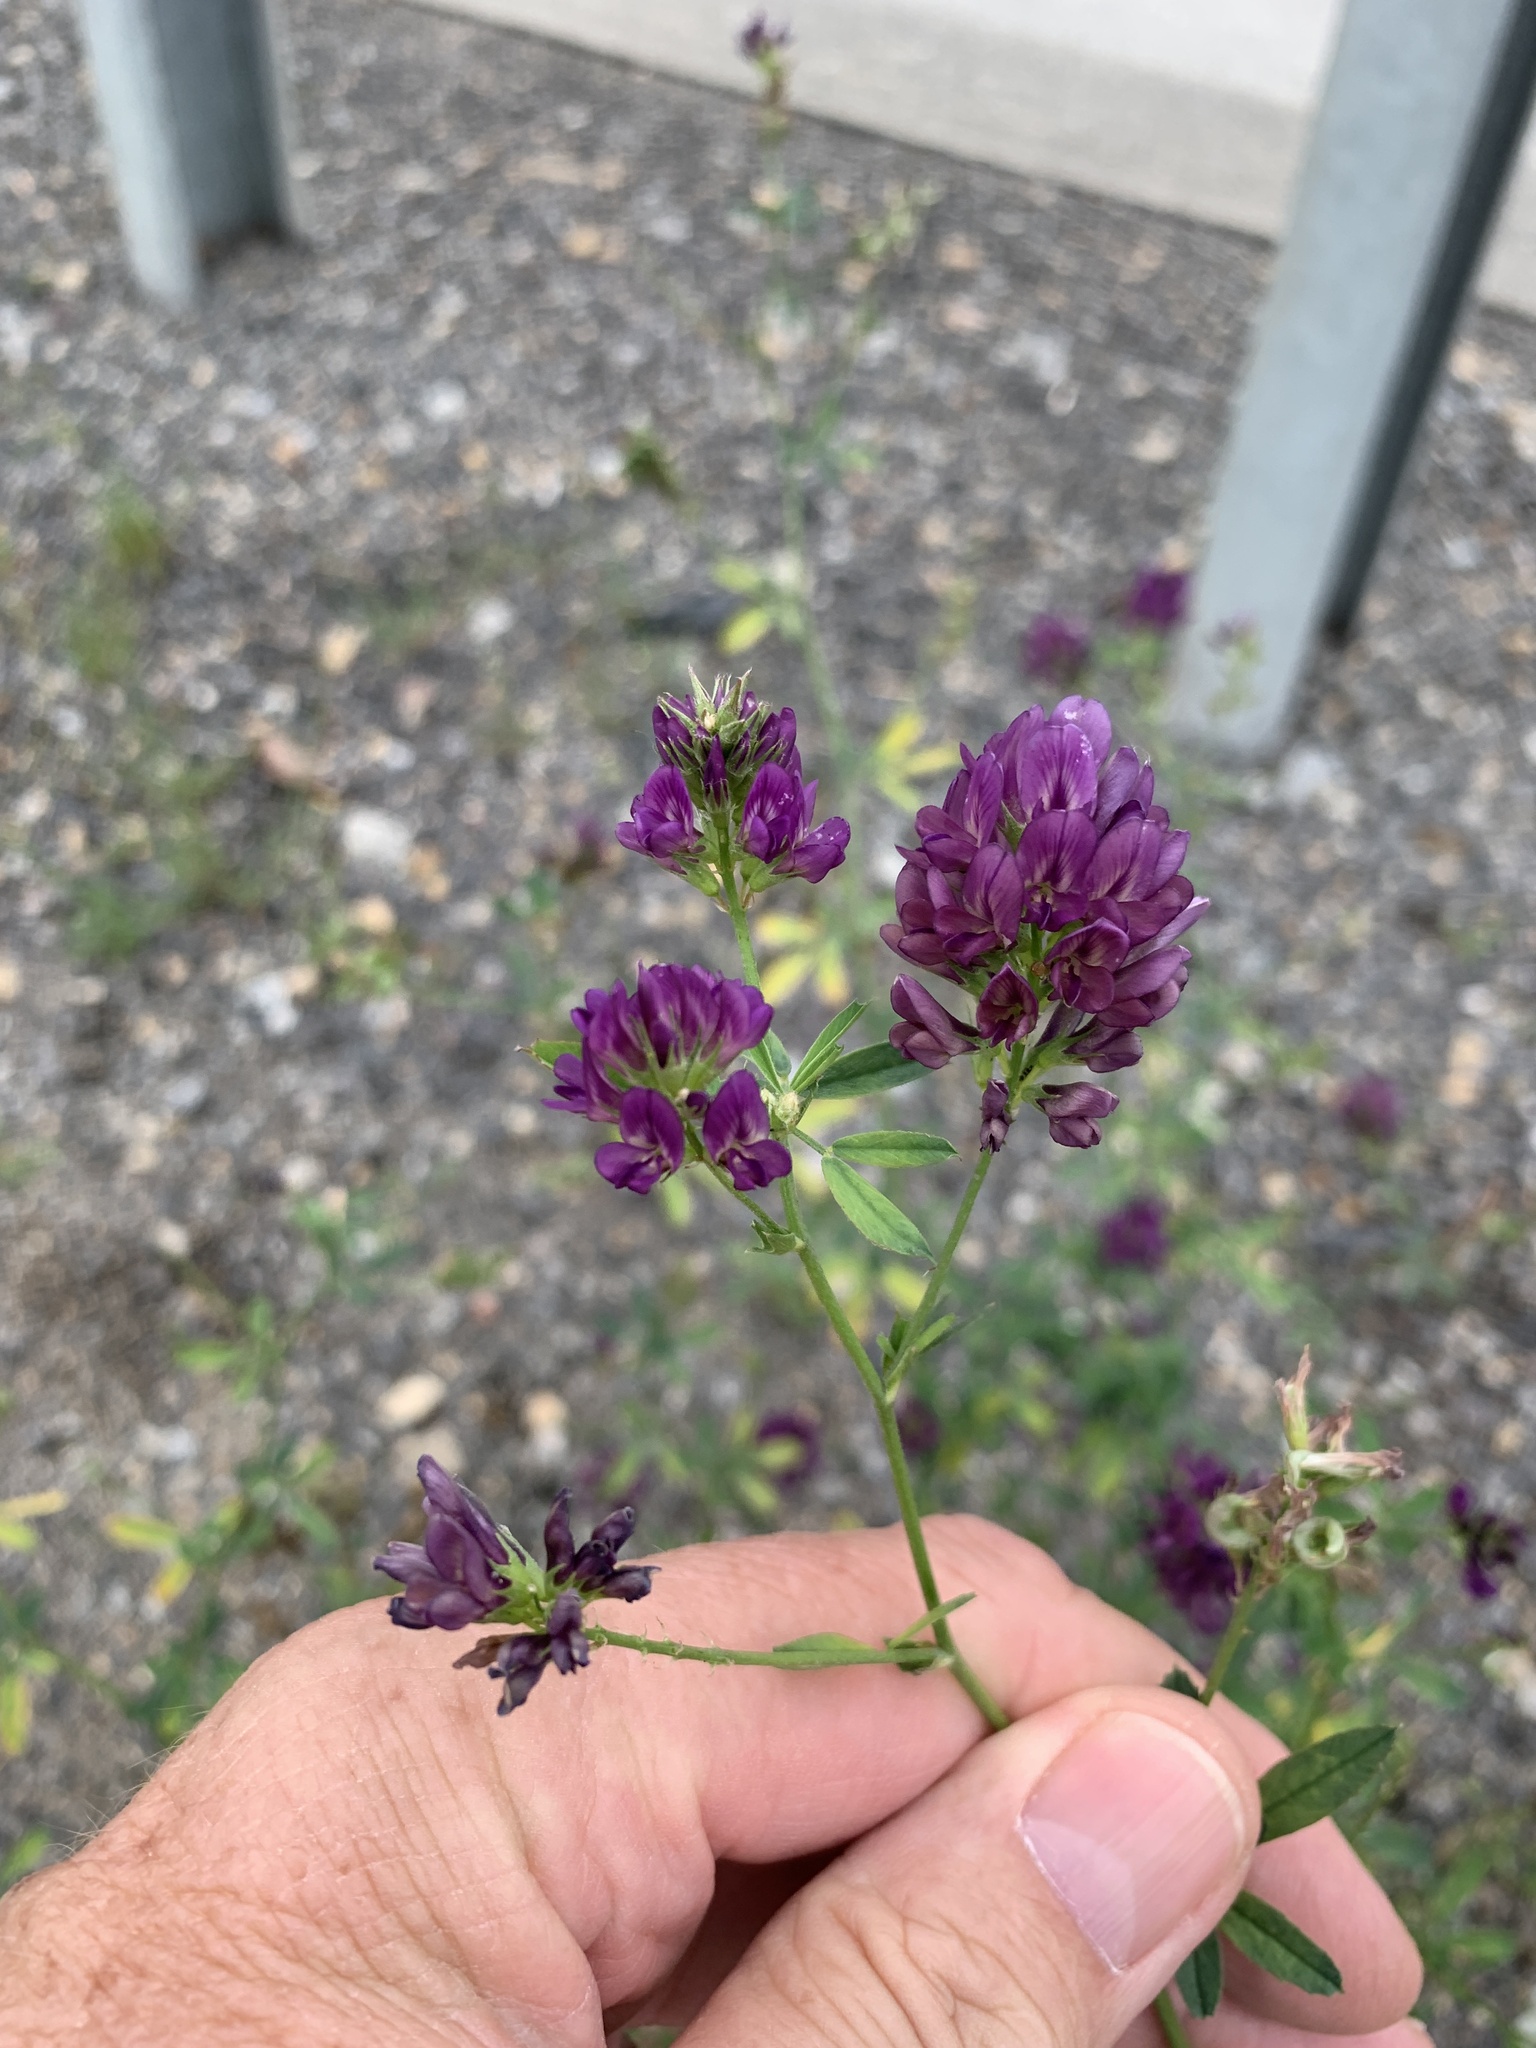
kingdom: Plantae
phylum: Tracheophyta
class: Magnoliopsida
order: Fabales
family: Fabaceae
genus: Medicago
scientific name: Medicago sativa
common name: Alfalfa
